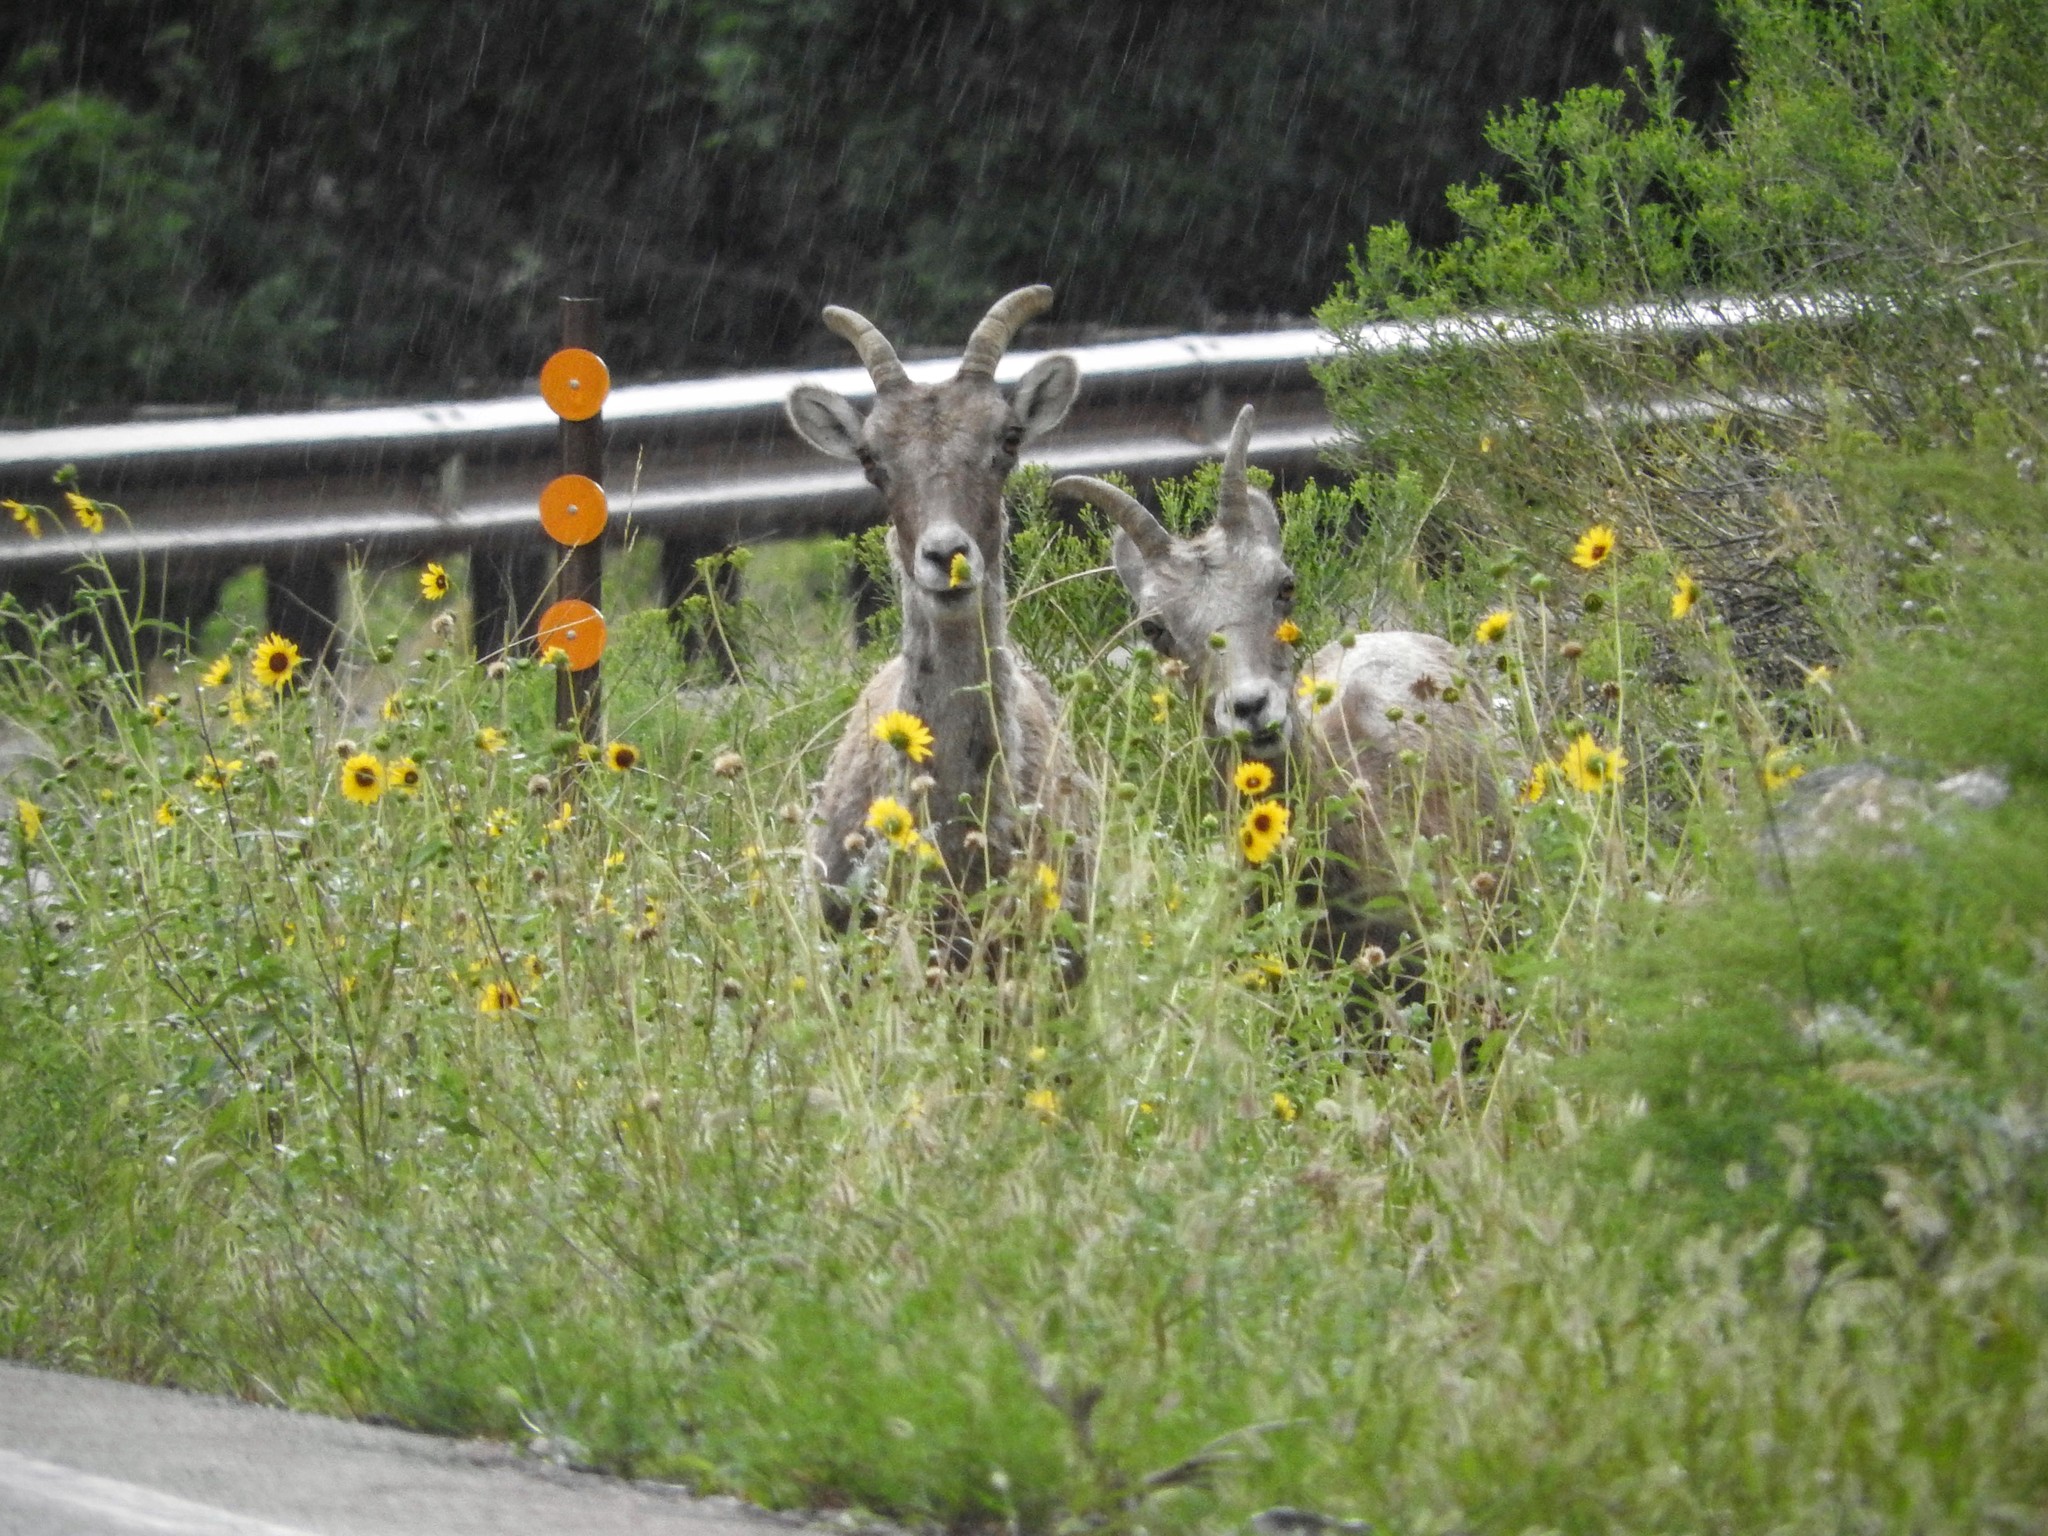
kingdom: Animalia
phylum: Chordata
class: Mammalia
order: Artiodactyla
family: Bovidae
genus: Ovis
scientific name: Ovis canadensis
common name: Bighorn sheep
